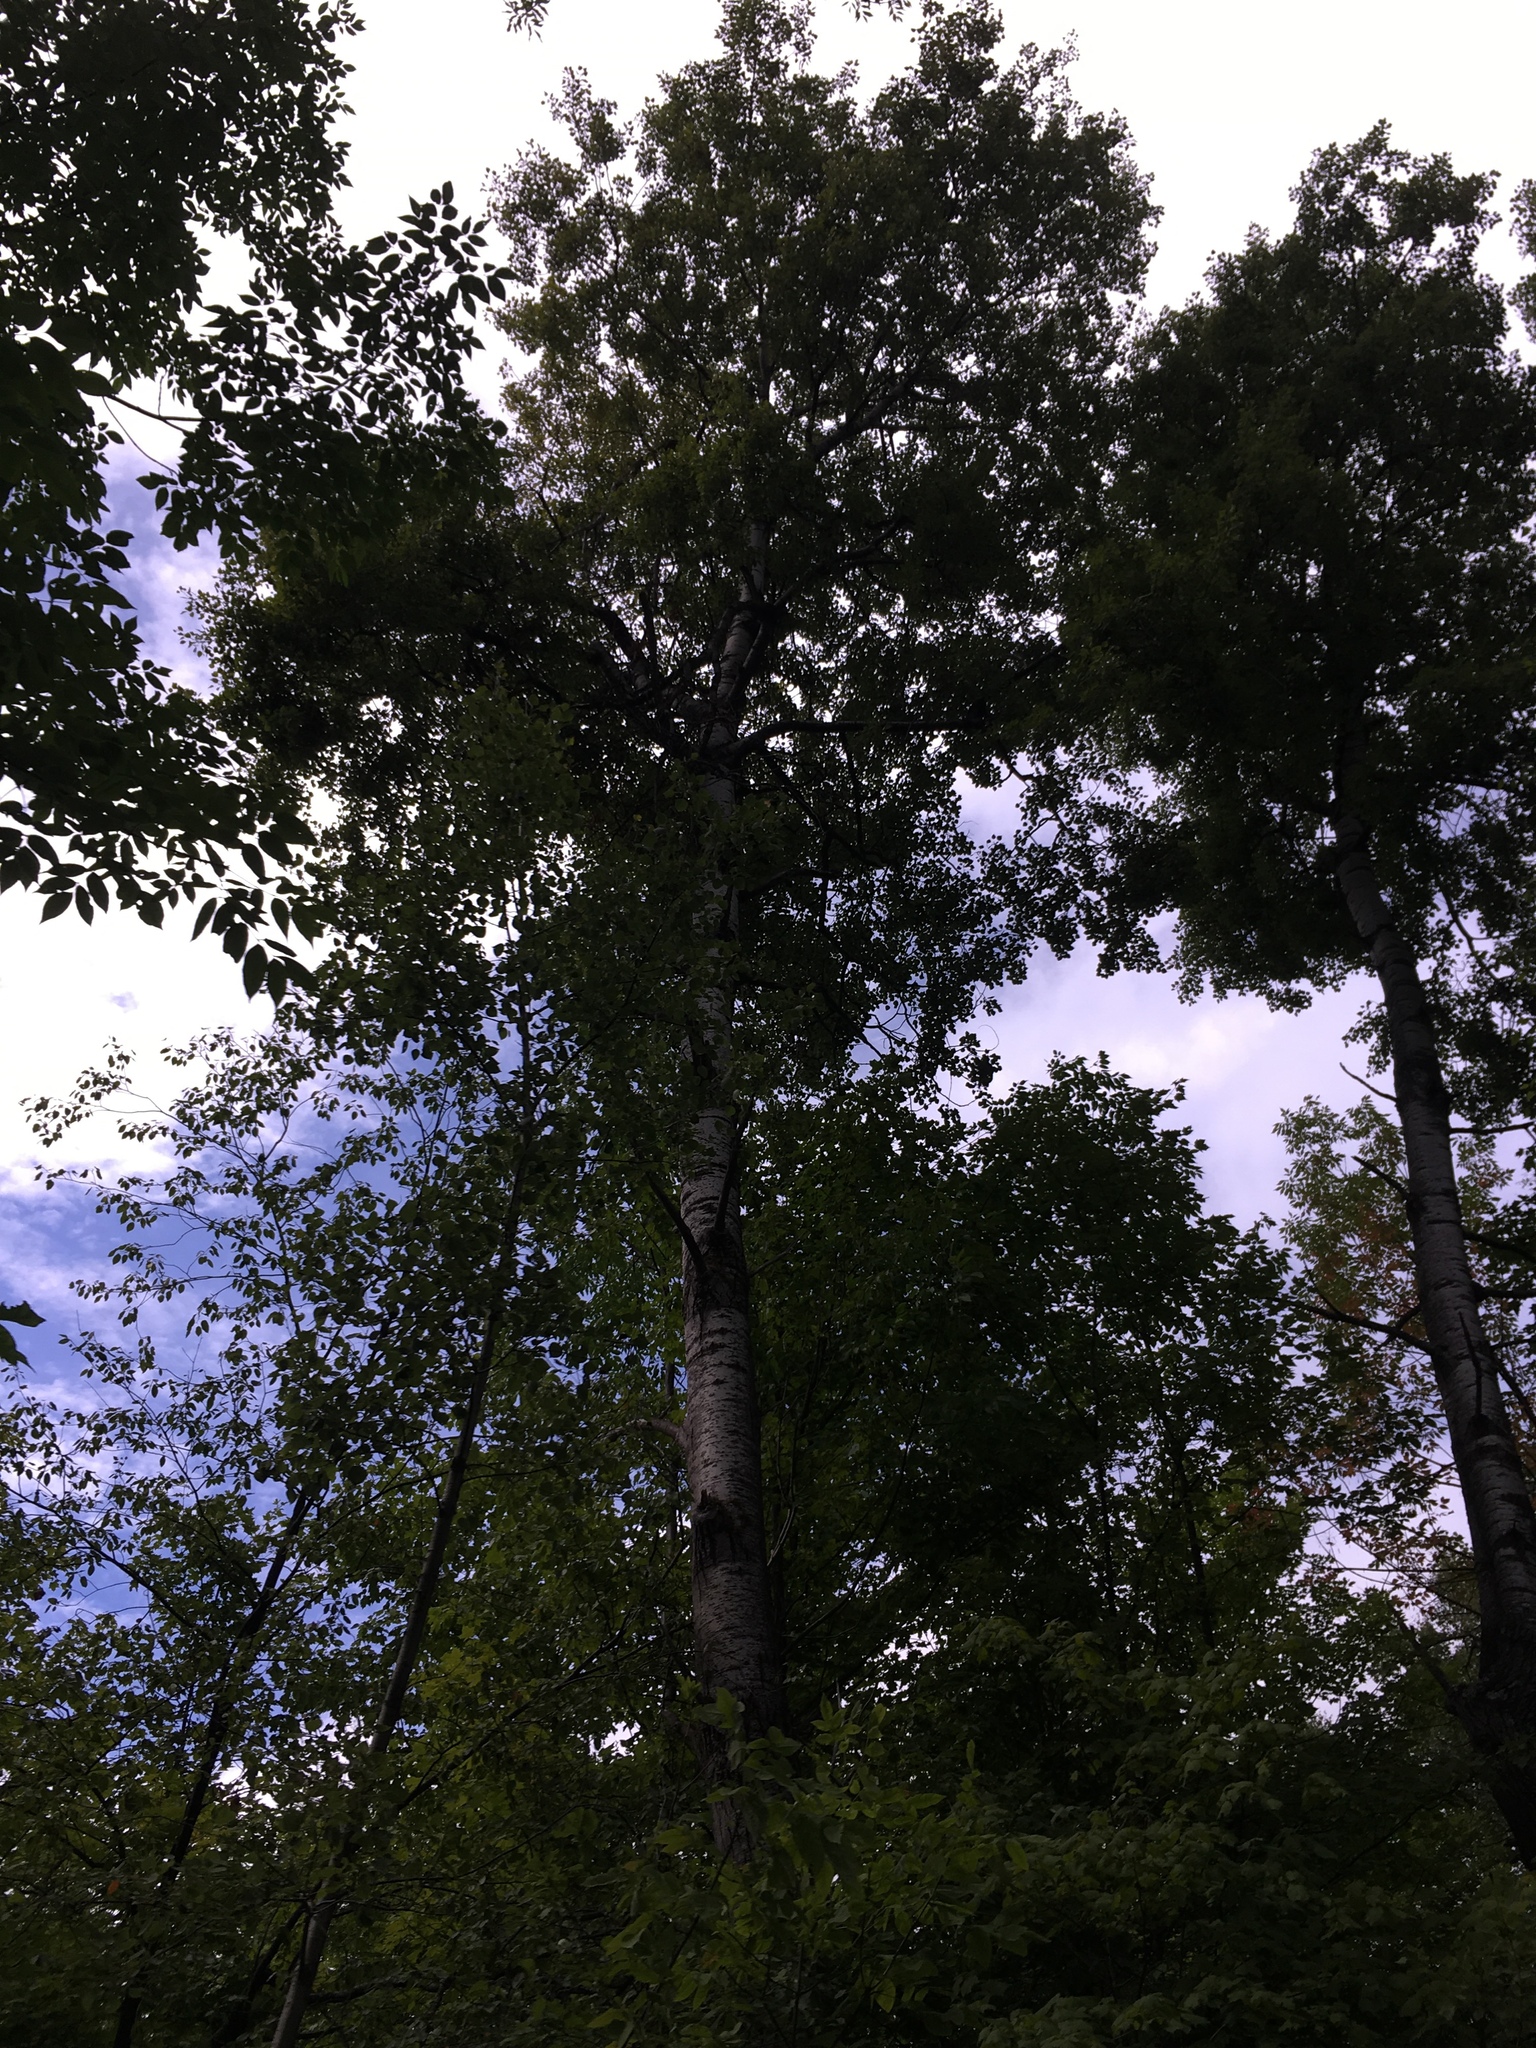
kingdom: Plantae
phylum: Tracheophyta
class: Magnoliopsida
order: Malpighiales
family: Salicaceae
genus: Populus
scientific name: Populus tremuloides
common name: Quaking aspen
